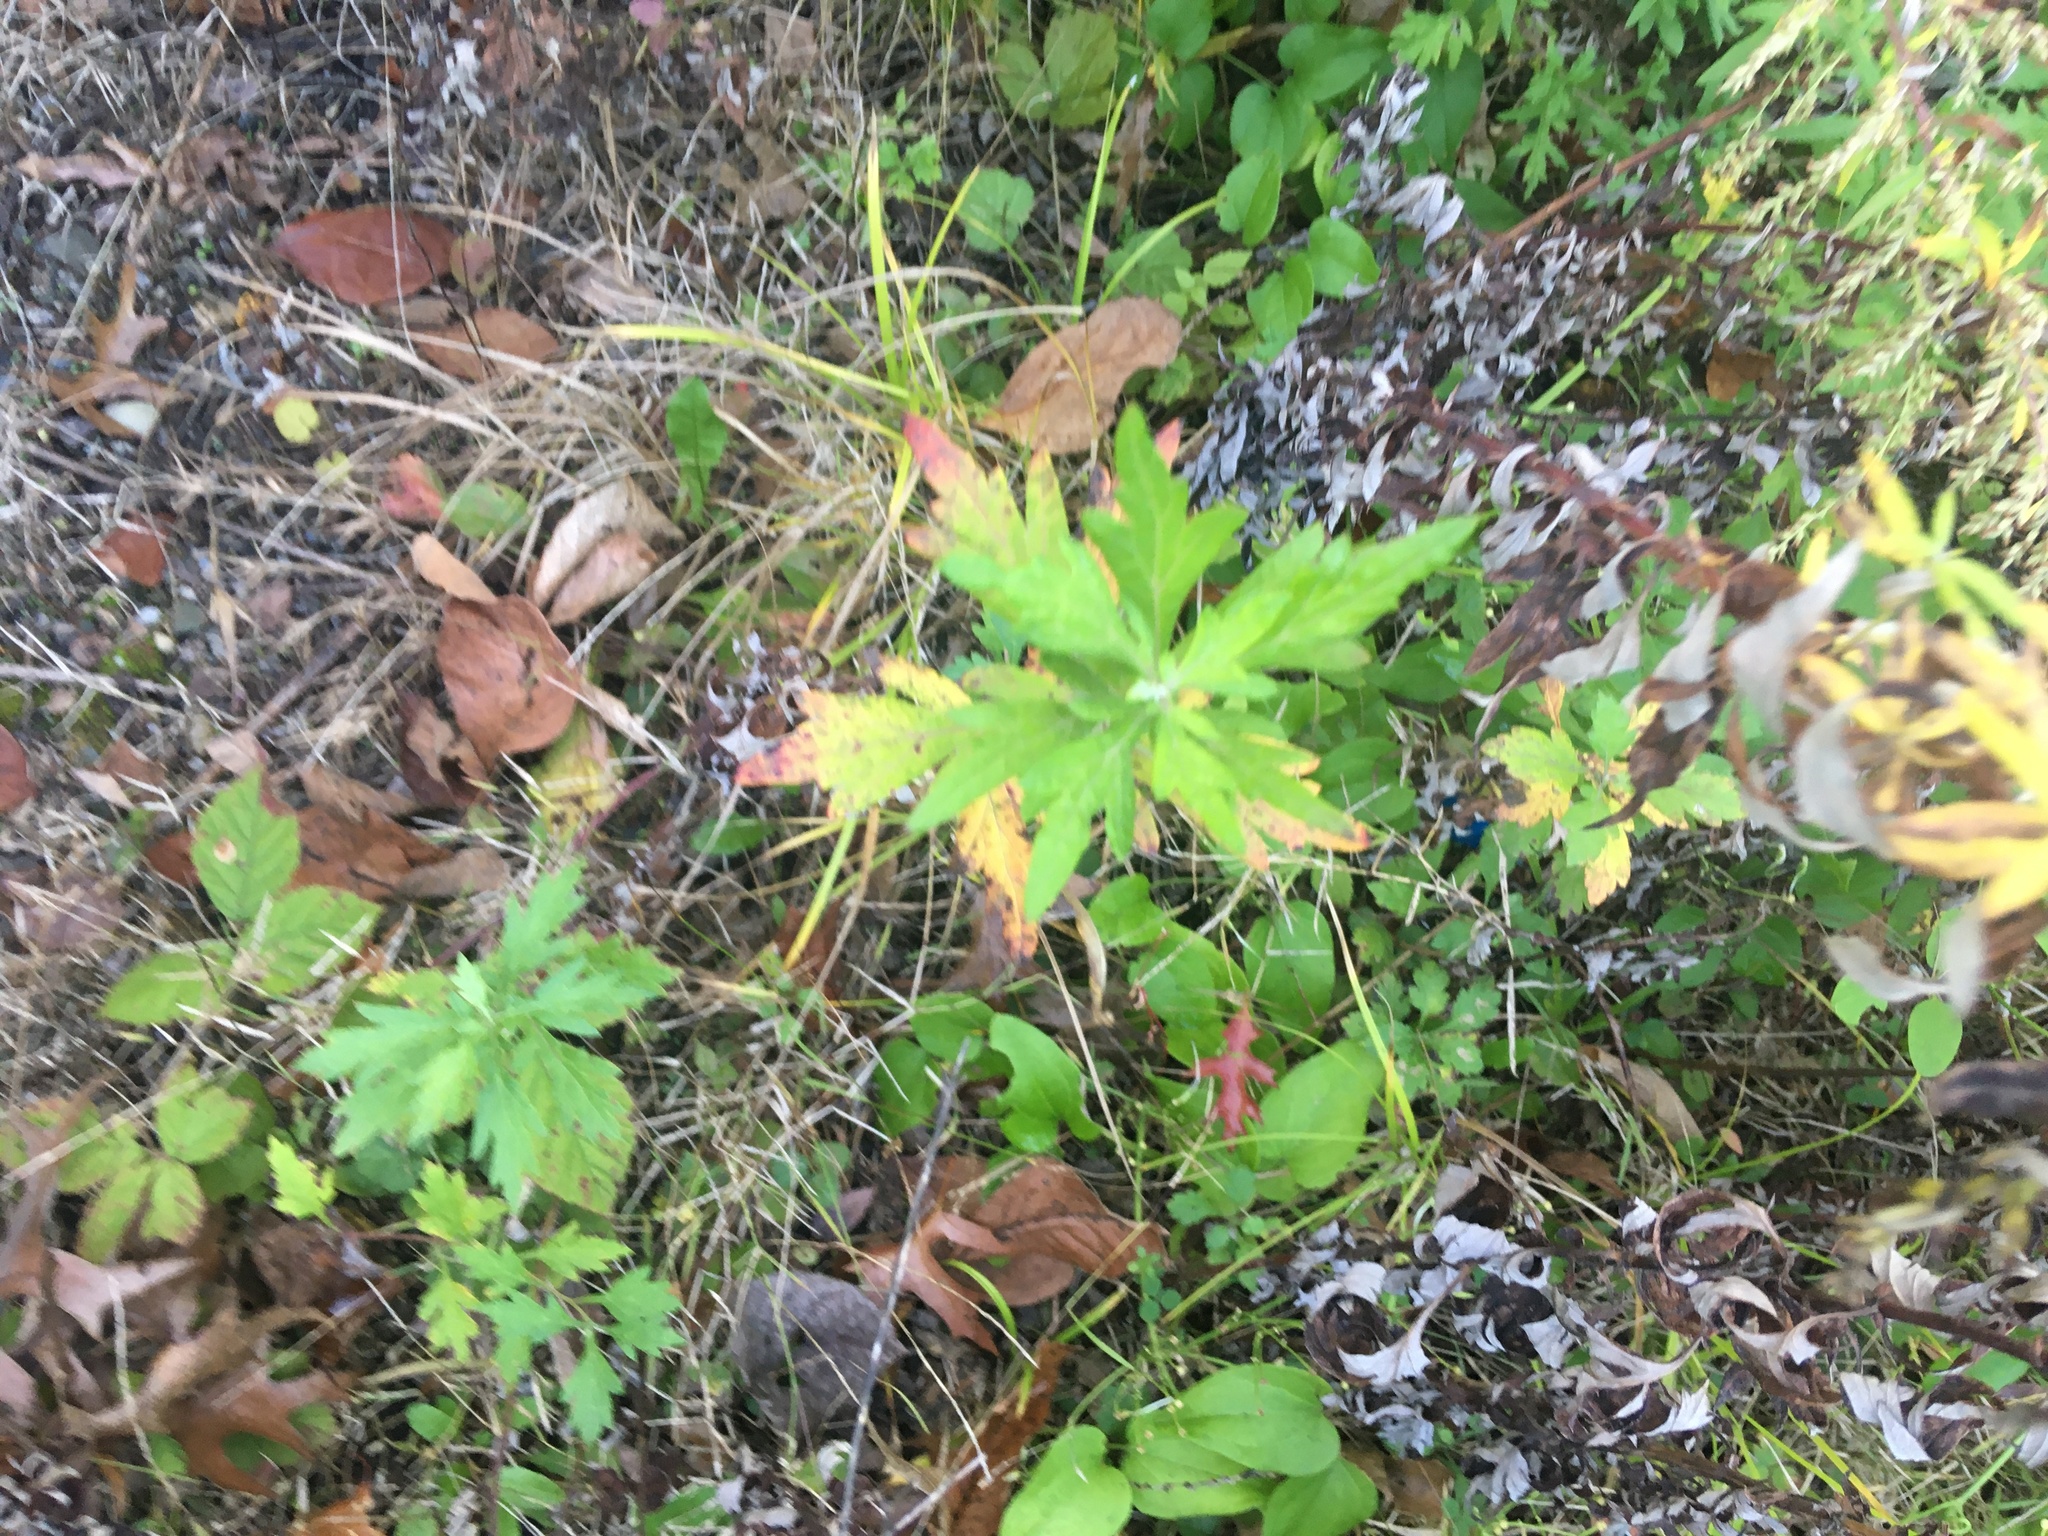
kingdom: Plantae
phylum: Tracheophyta
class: Magnoliopsida
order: Asterales
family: Asteraceae
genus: Artemisia
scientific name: Artemisia vulgaris
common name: Mugwort
